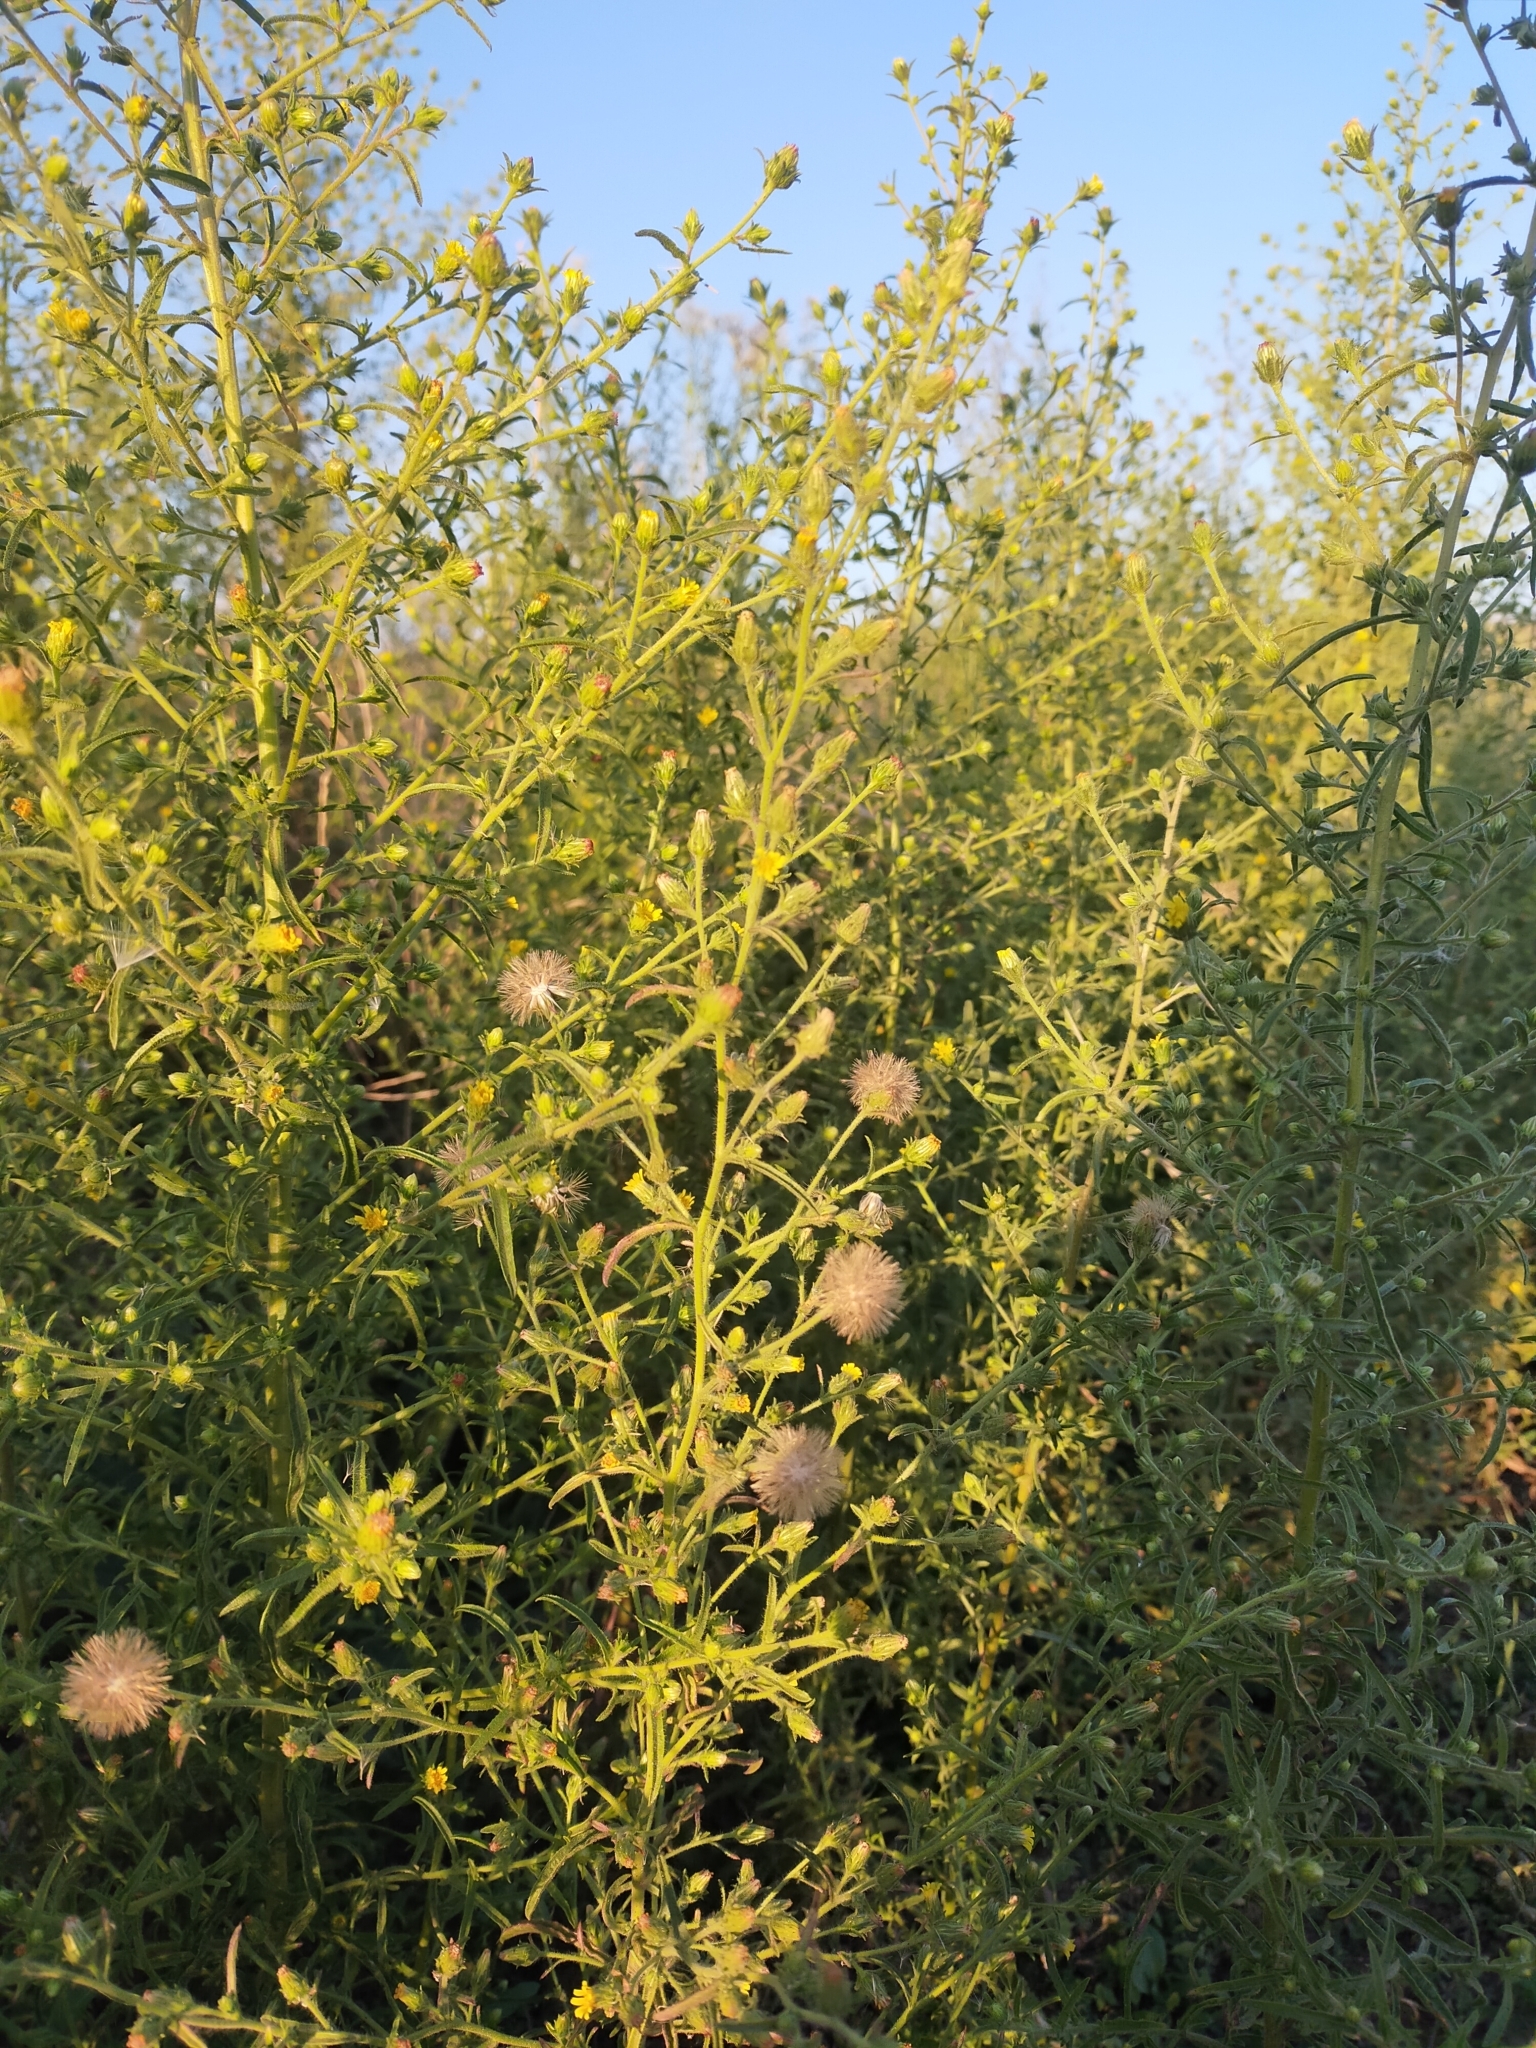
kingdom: Plantae
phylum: Tracheophyta
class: Magnoliopsida
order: Asterales
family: Asteraceae
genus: Dittrichia
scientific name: Dittrichia graveolens
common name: Stinking fleabane
